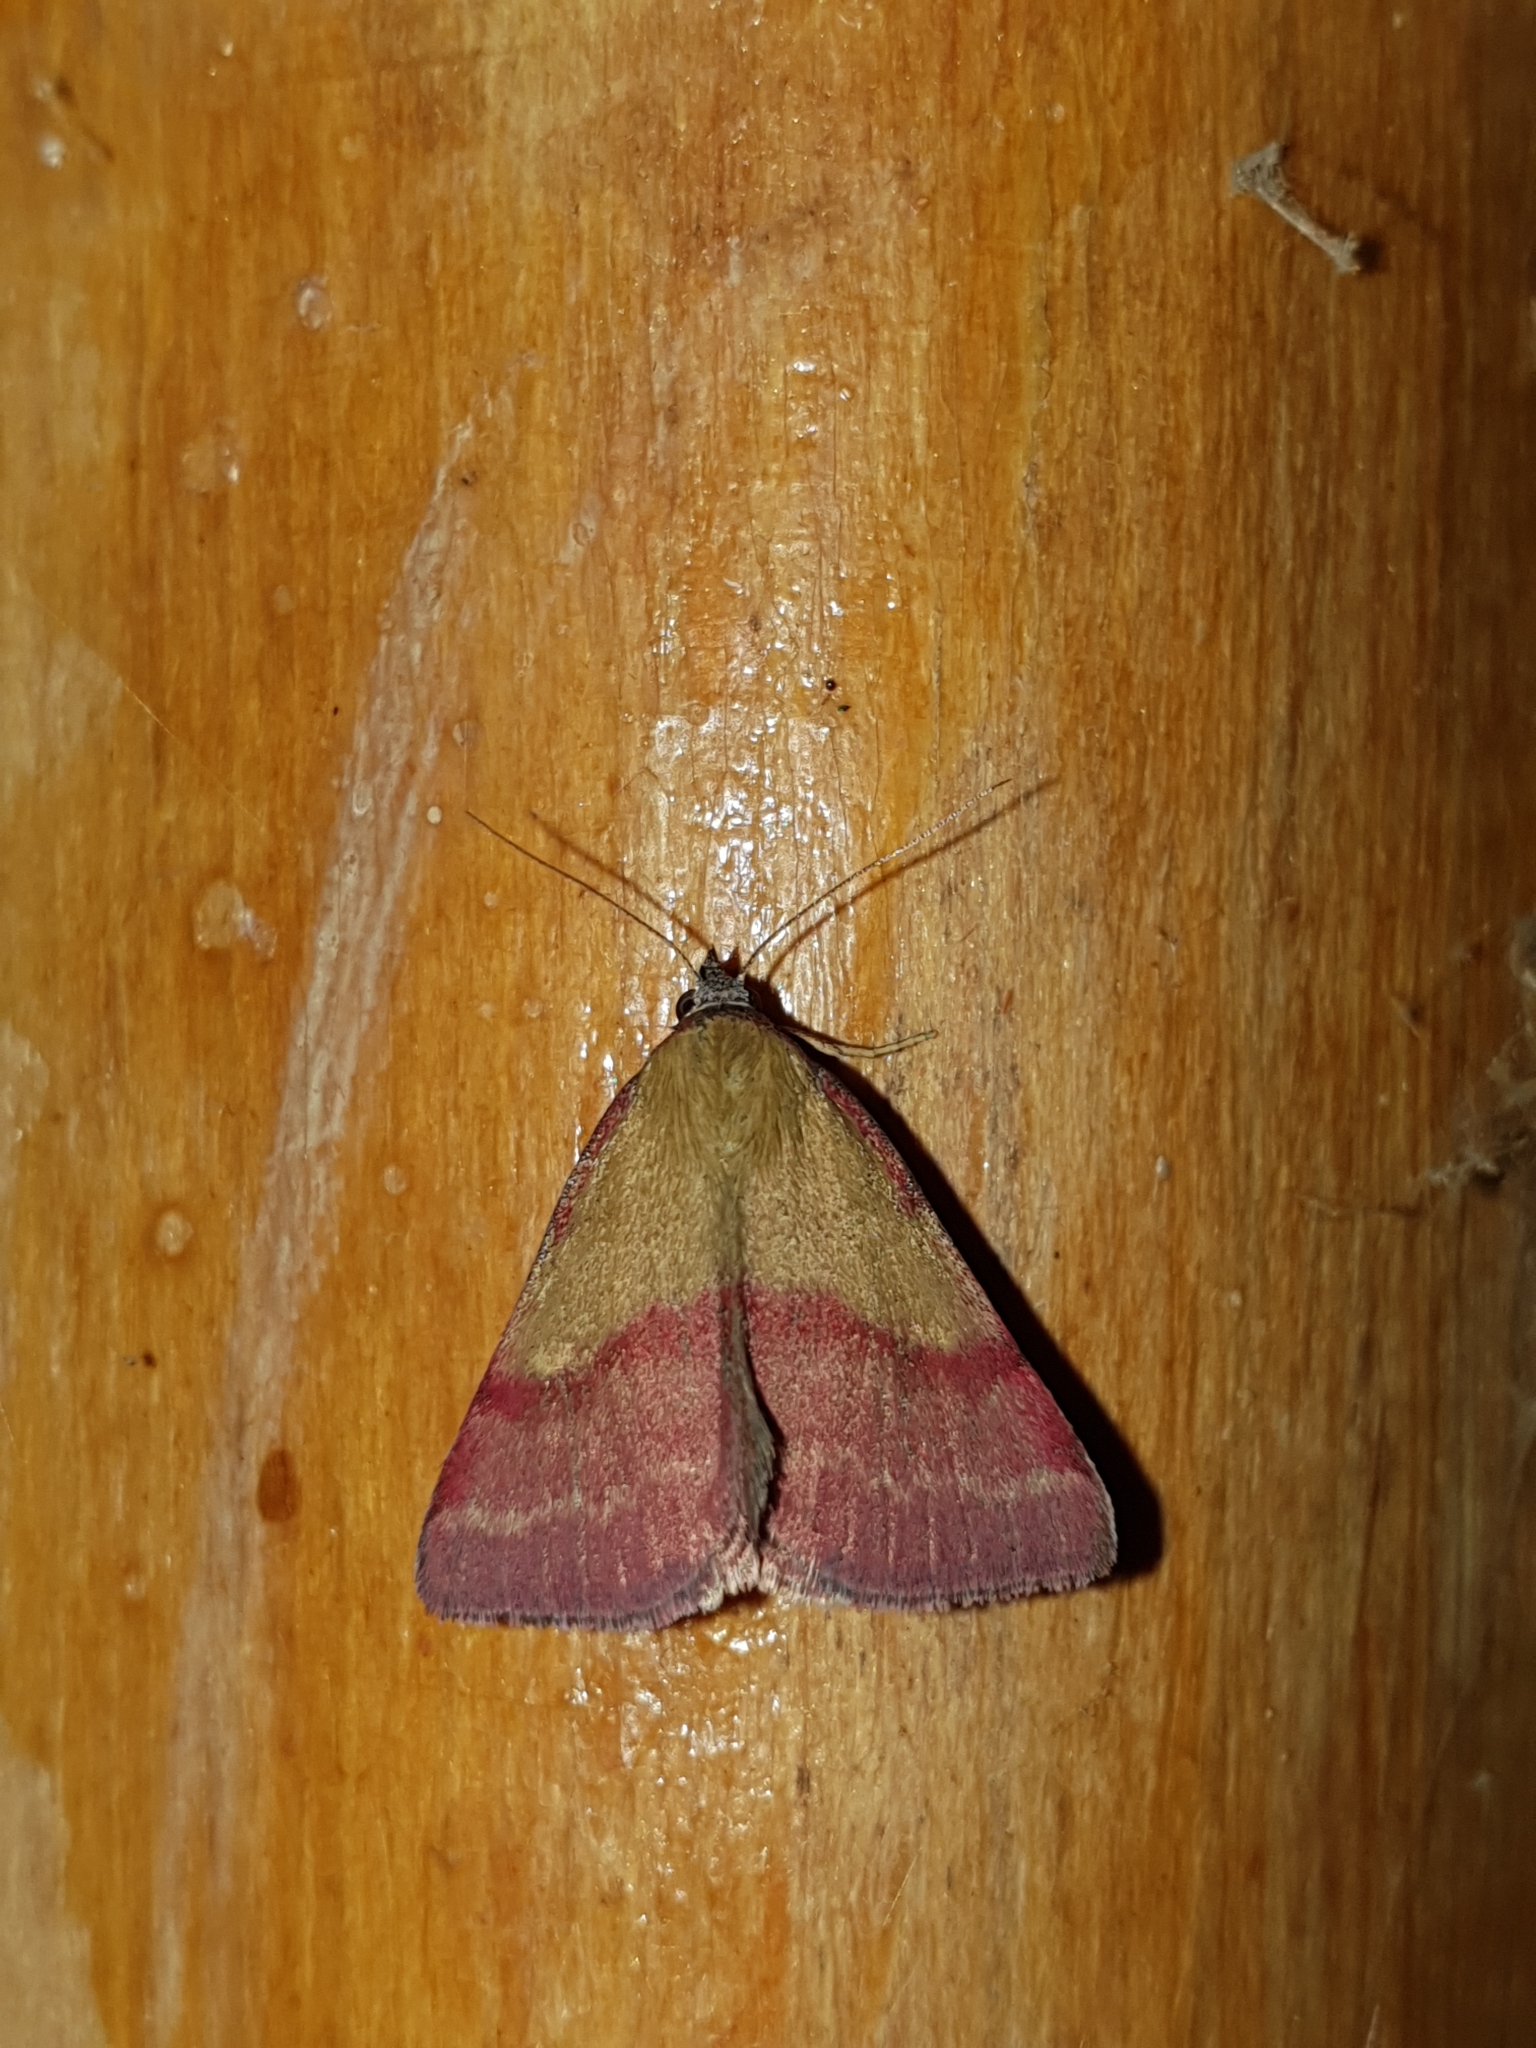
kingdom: Animalia
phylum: Arthropoda
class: Insecta
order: Lepidoptera
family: Erebidae
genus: Phytometra
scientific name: Phytometra viridaria
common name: Small purple-barred
